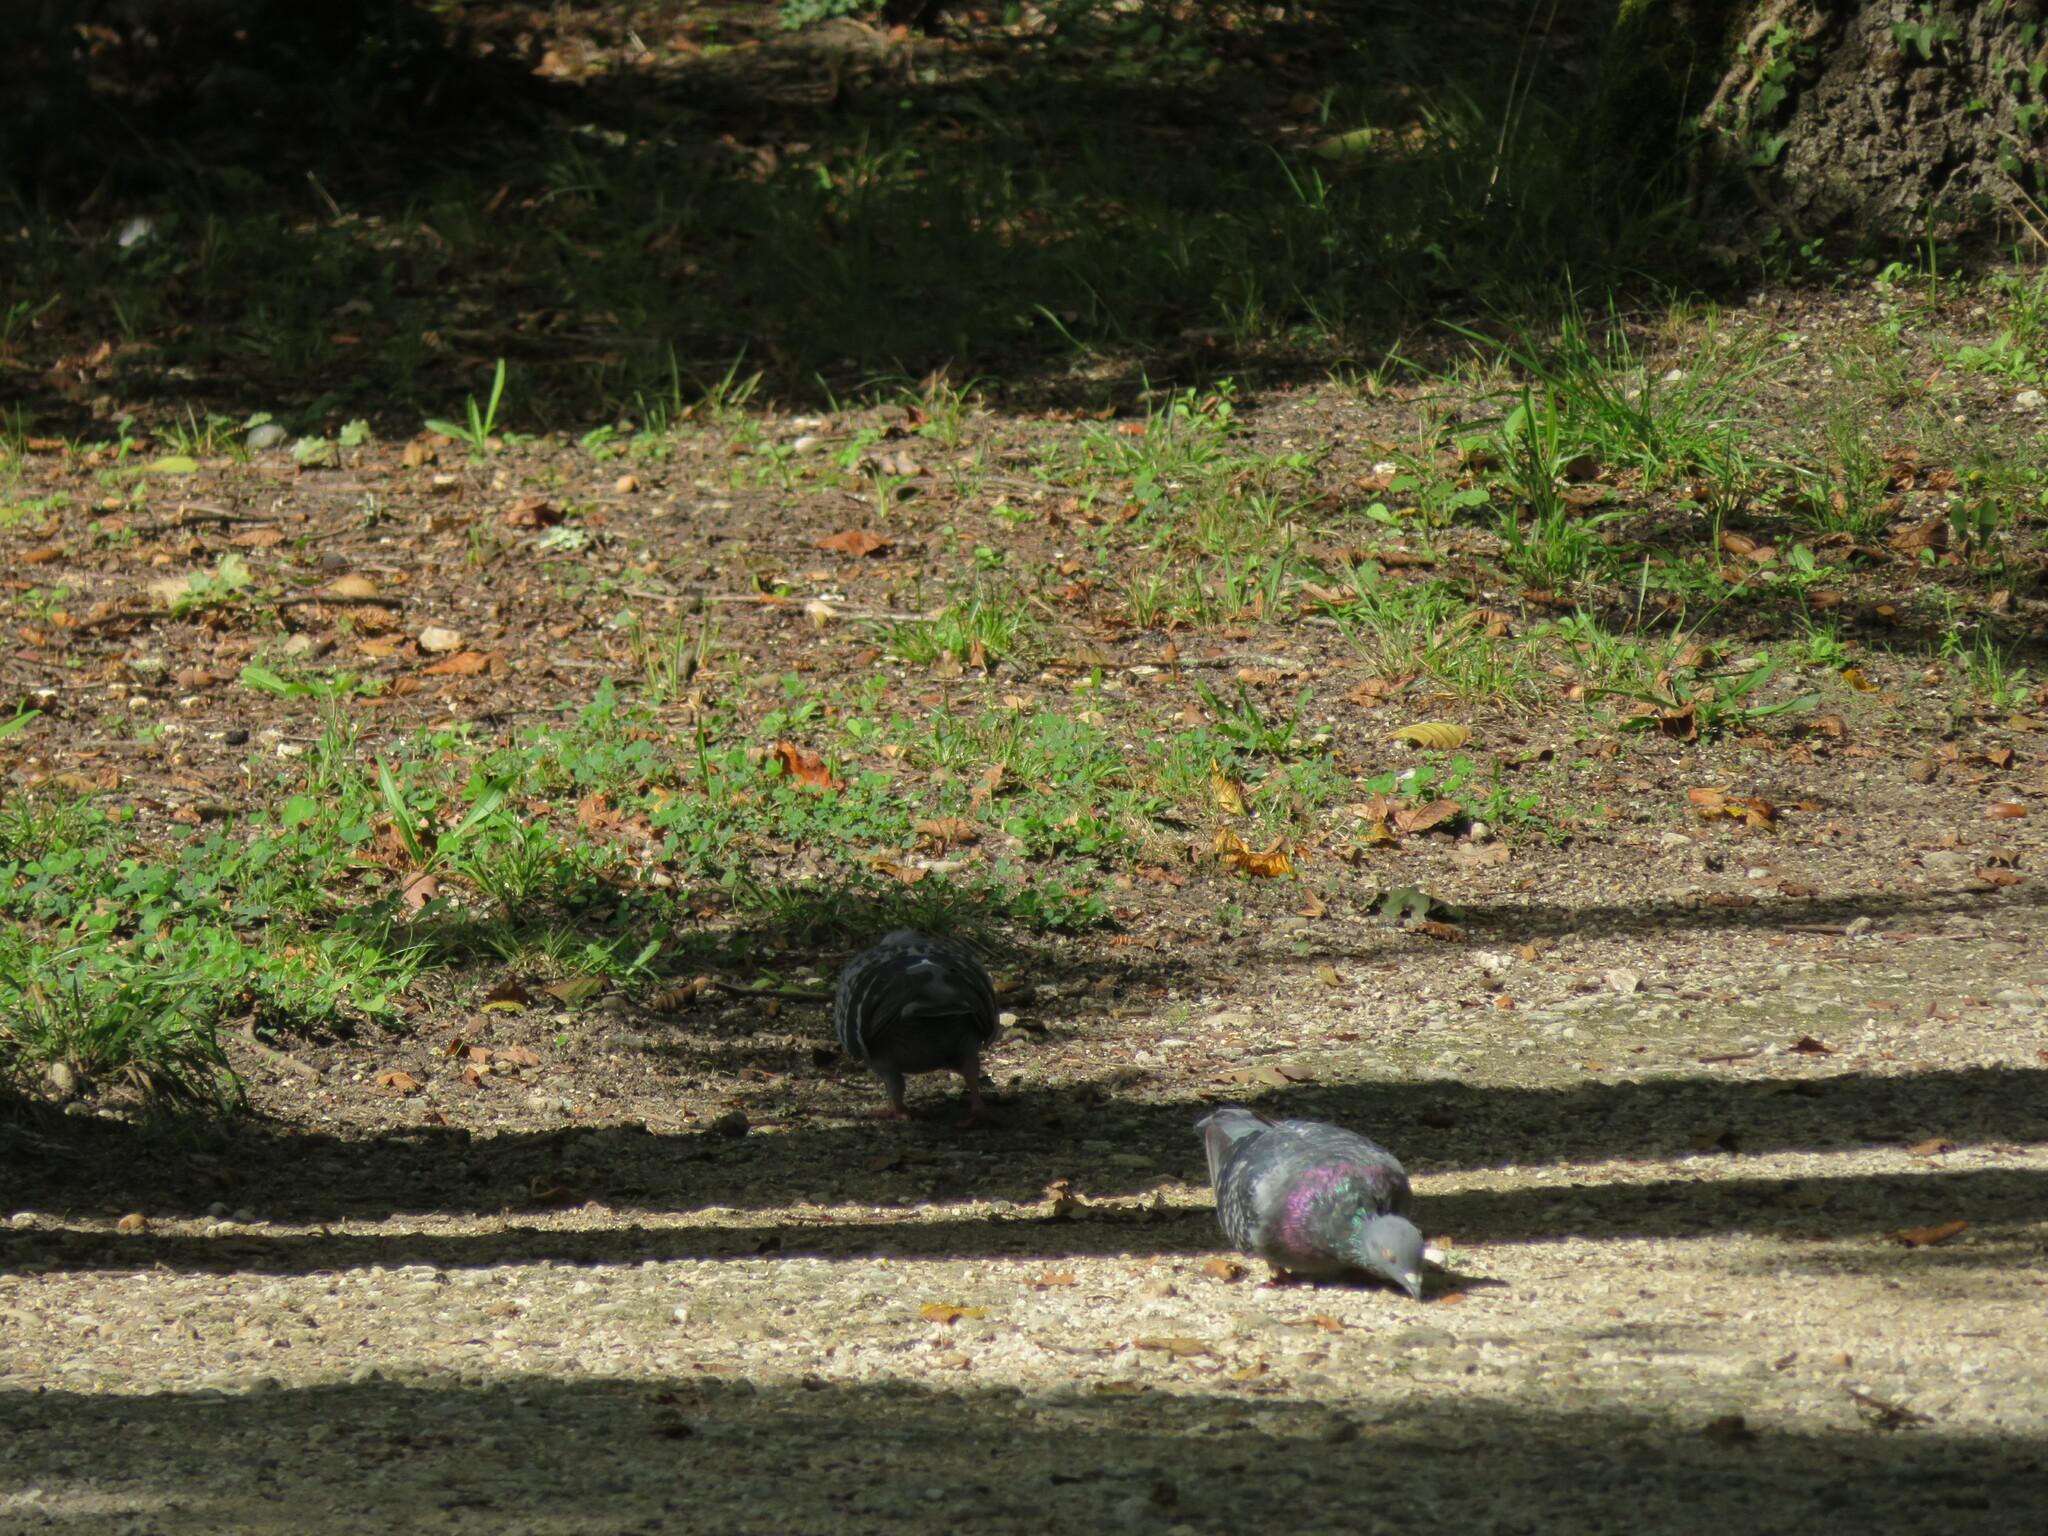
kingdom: Animalia
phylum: Chordata
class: Aves
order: Columbiformes
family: Columbidae
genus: Columba
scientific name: Columba livia
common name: Rock pigeon
